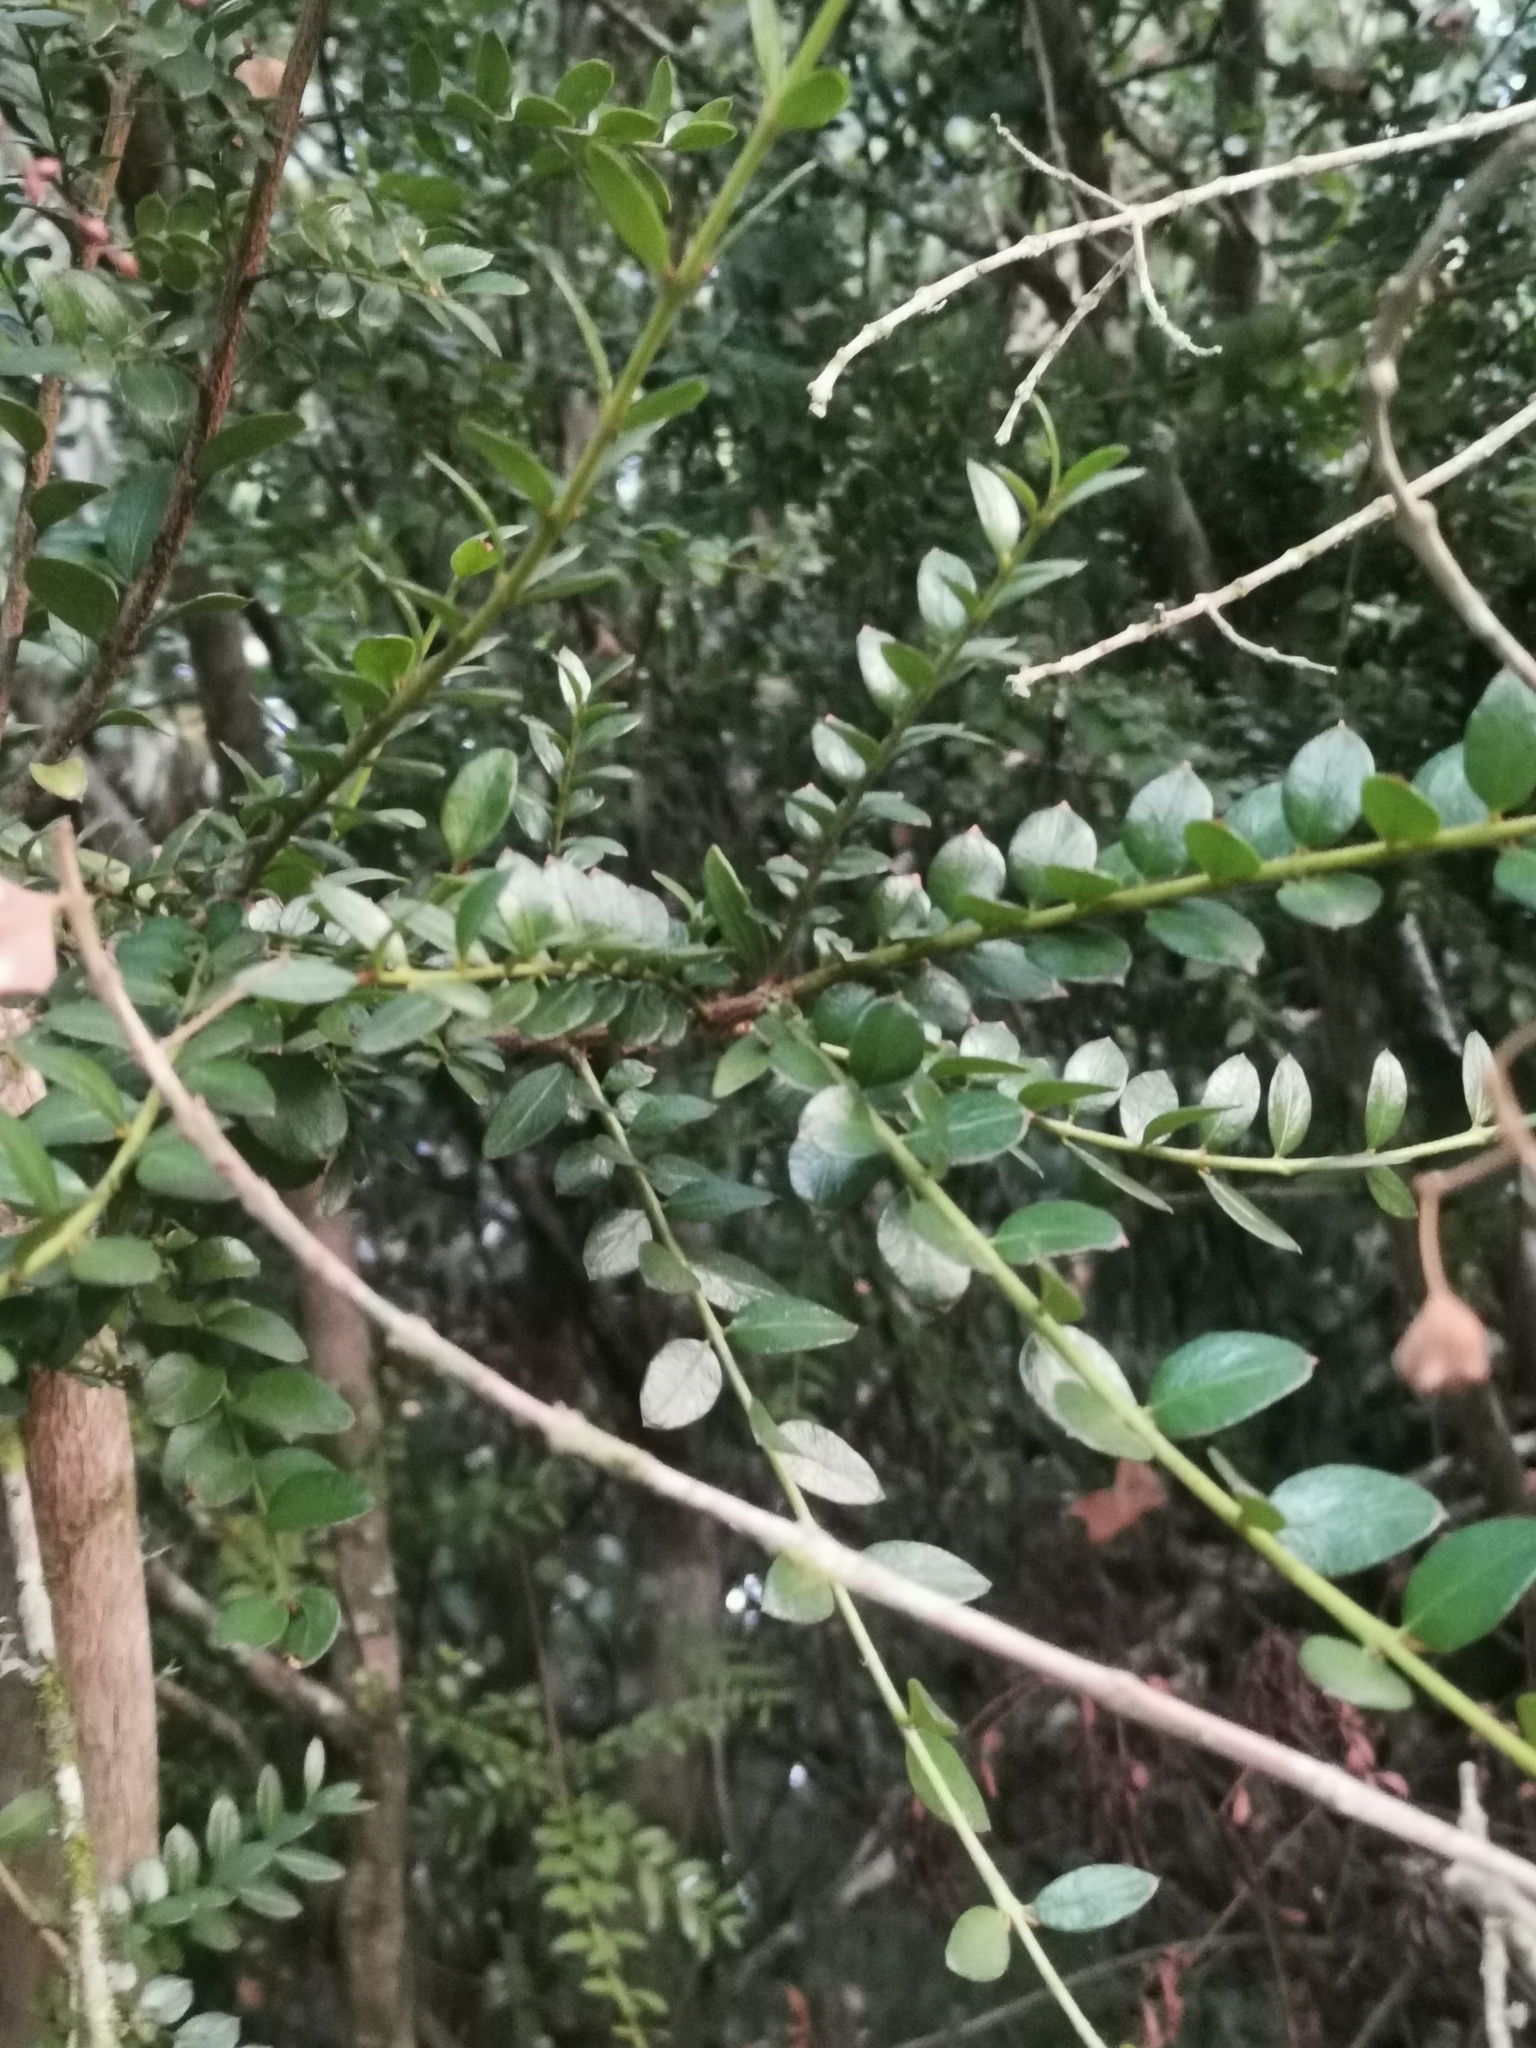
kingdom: Plantae
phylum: Tracheophyta
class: Magnoliopsida
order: Santalales
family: Santalaceae
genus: Lepidoceras
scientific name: Lepidoceras chilense
